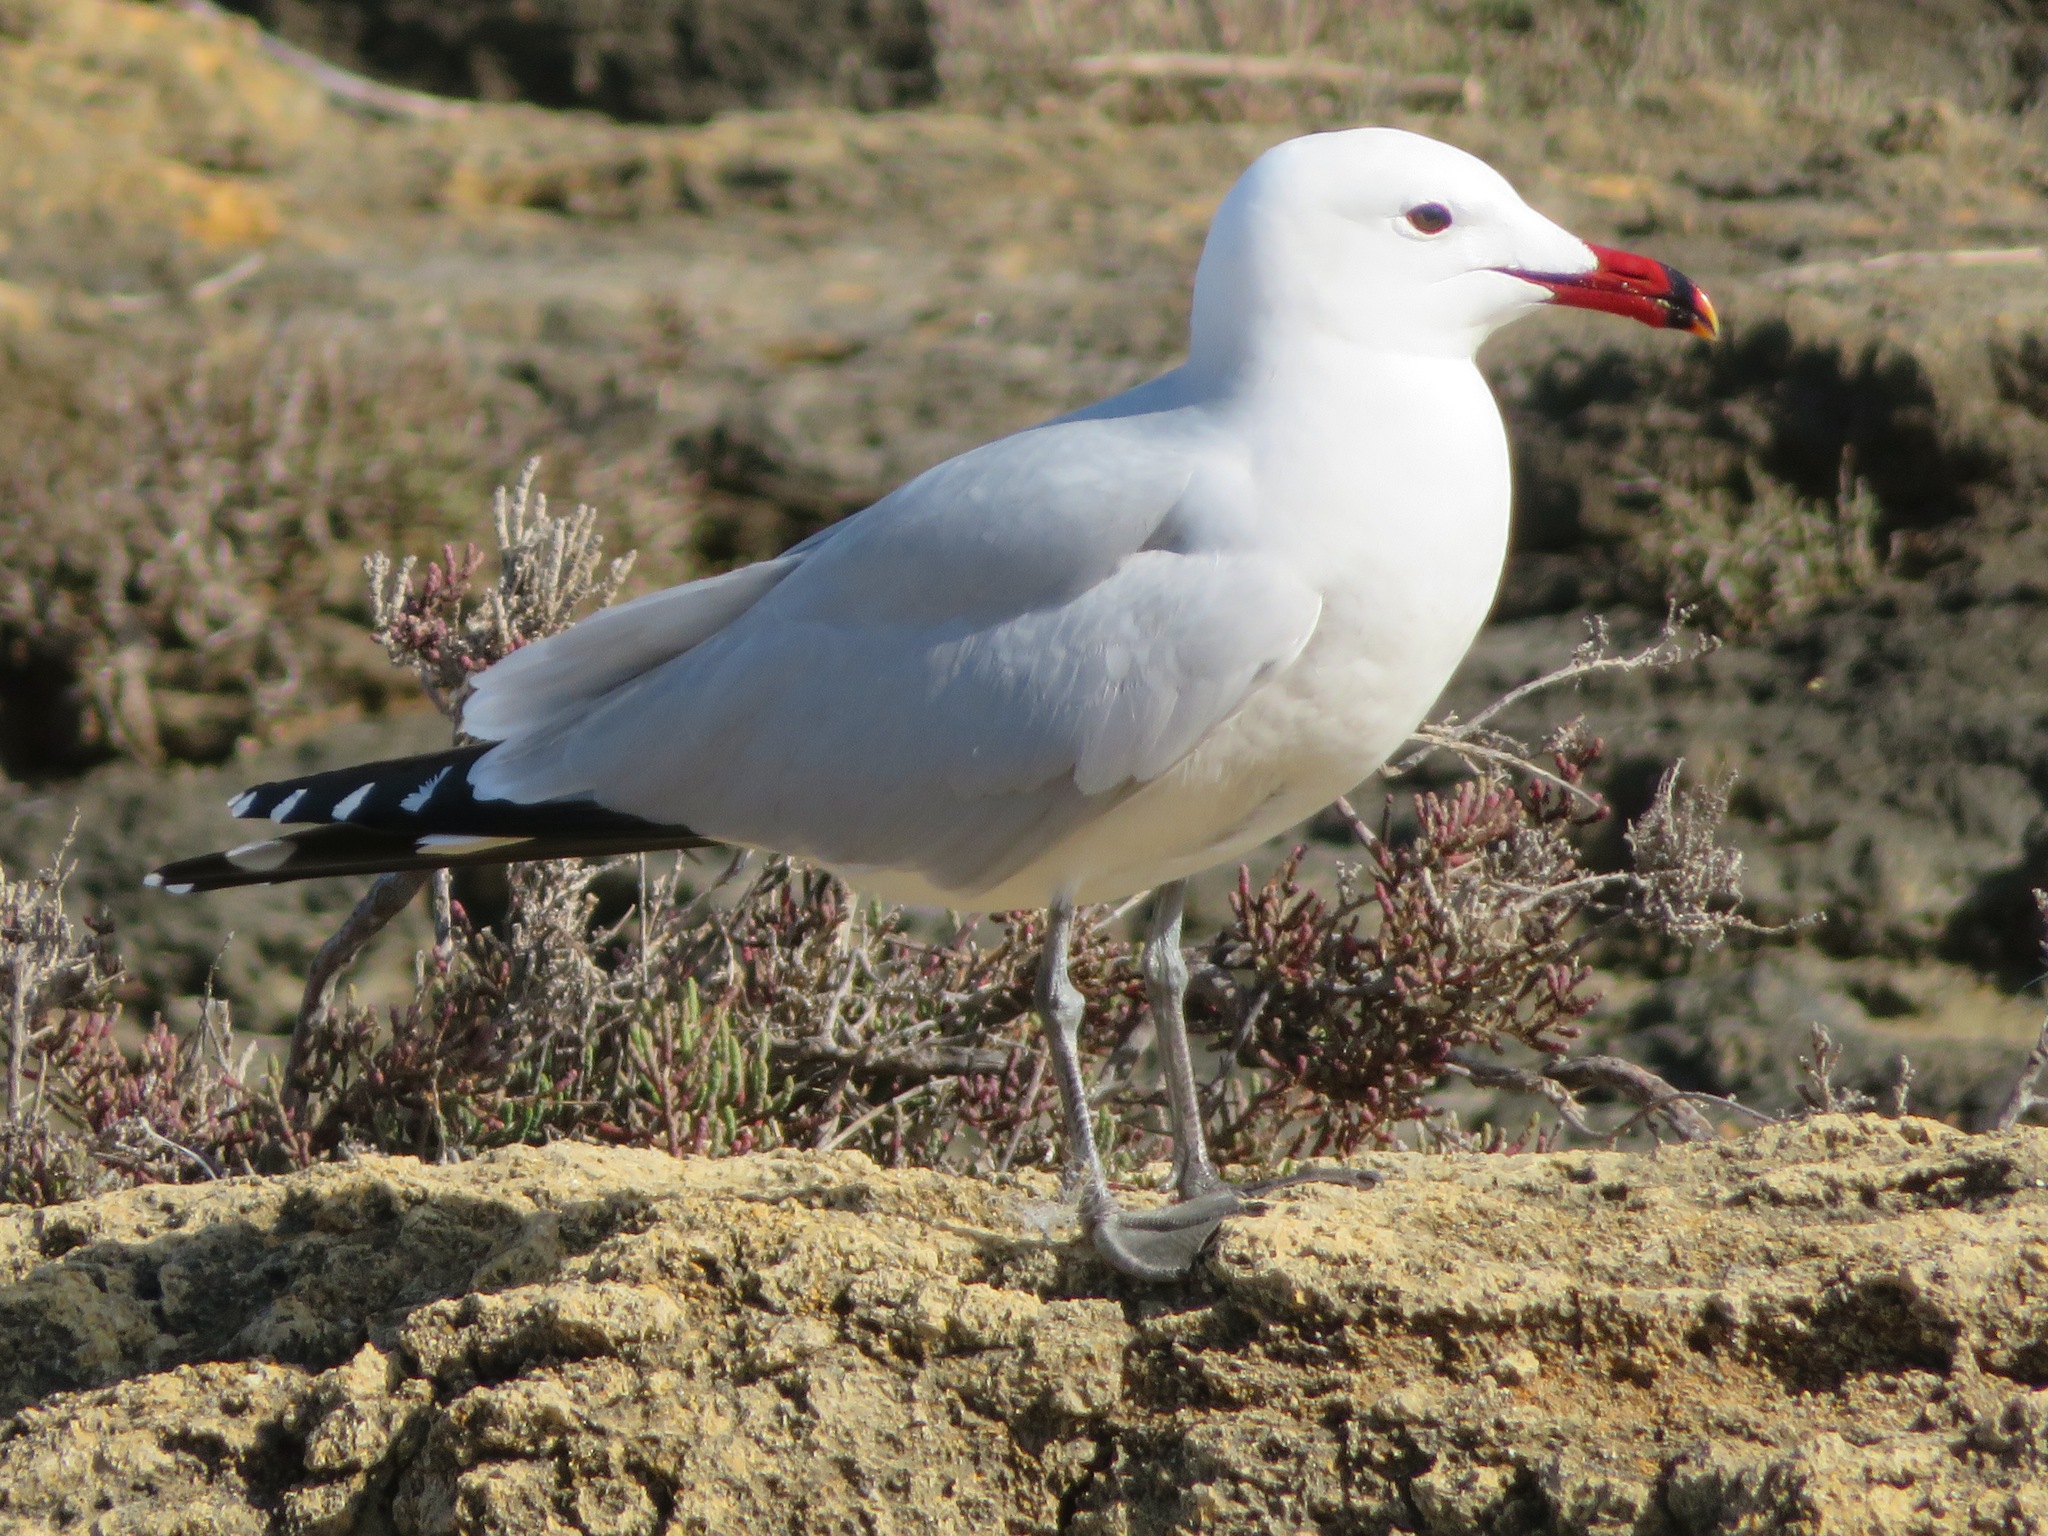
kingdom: Animalia
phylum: Chordata
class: Aves
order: Charadriiformes
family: Laridae
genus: Ichthyaetus
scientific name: Ichthyaetus audouinii
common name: Audouin's gull
